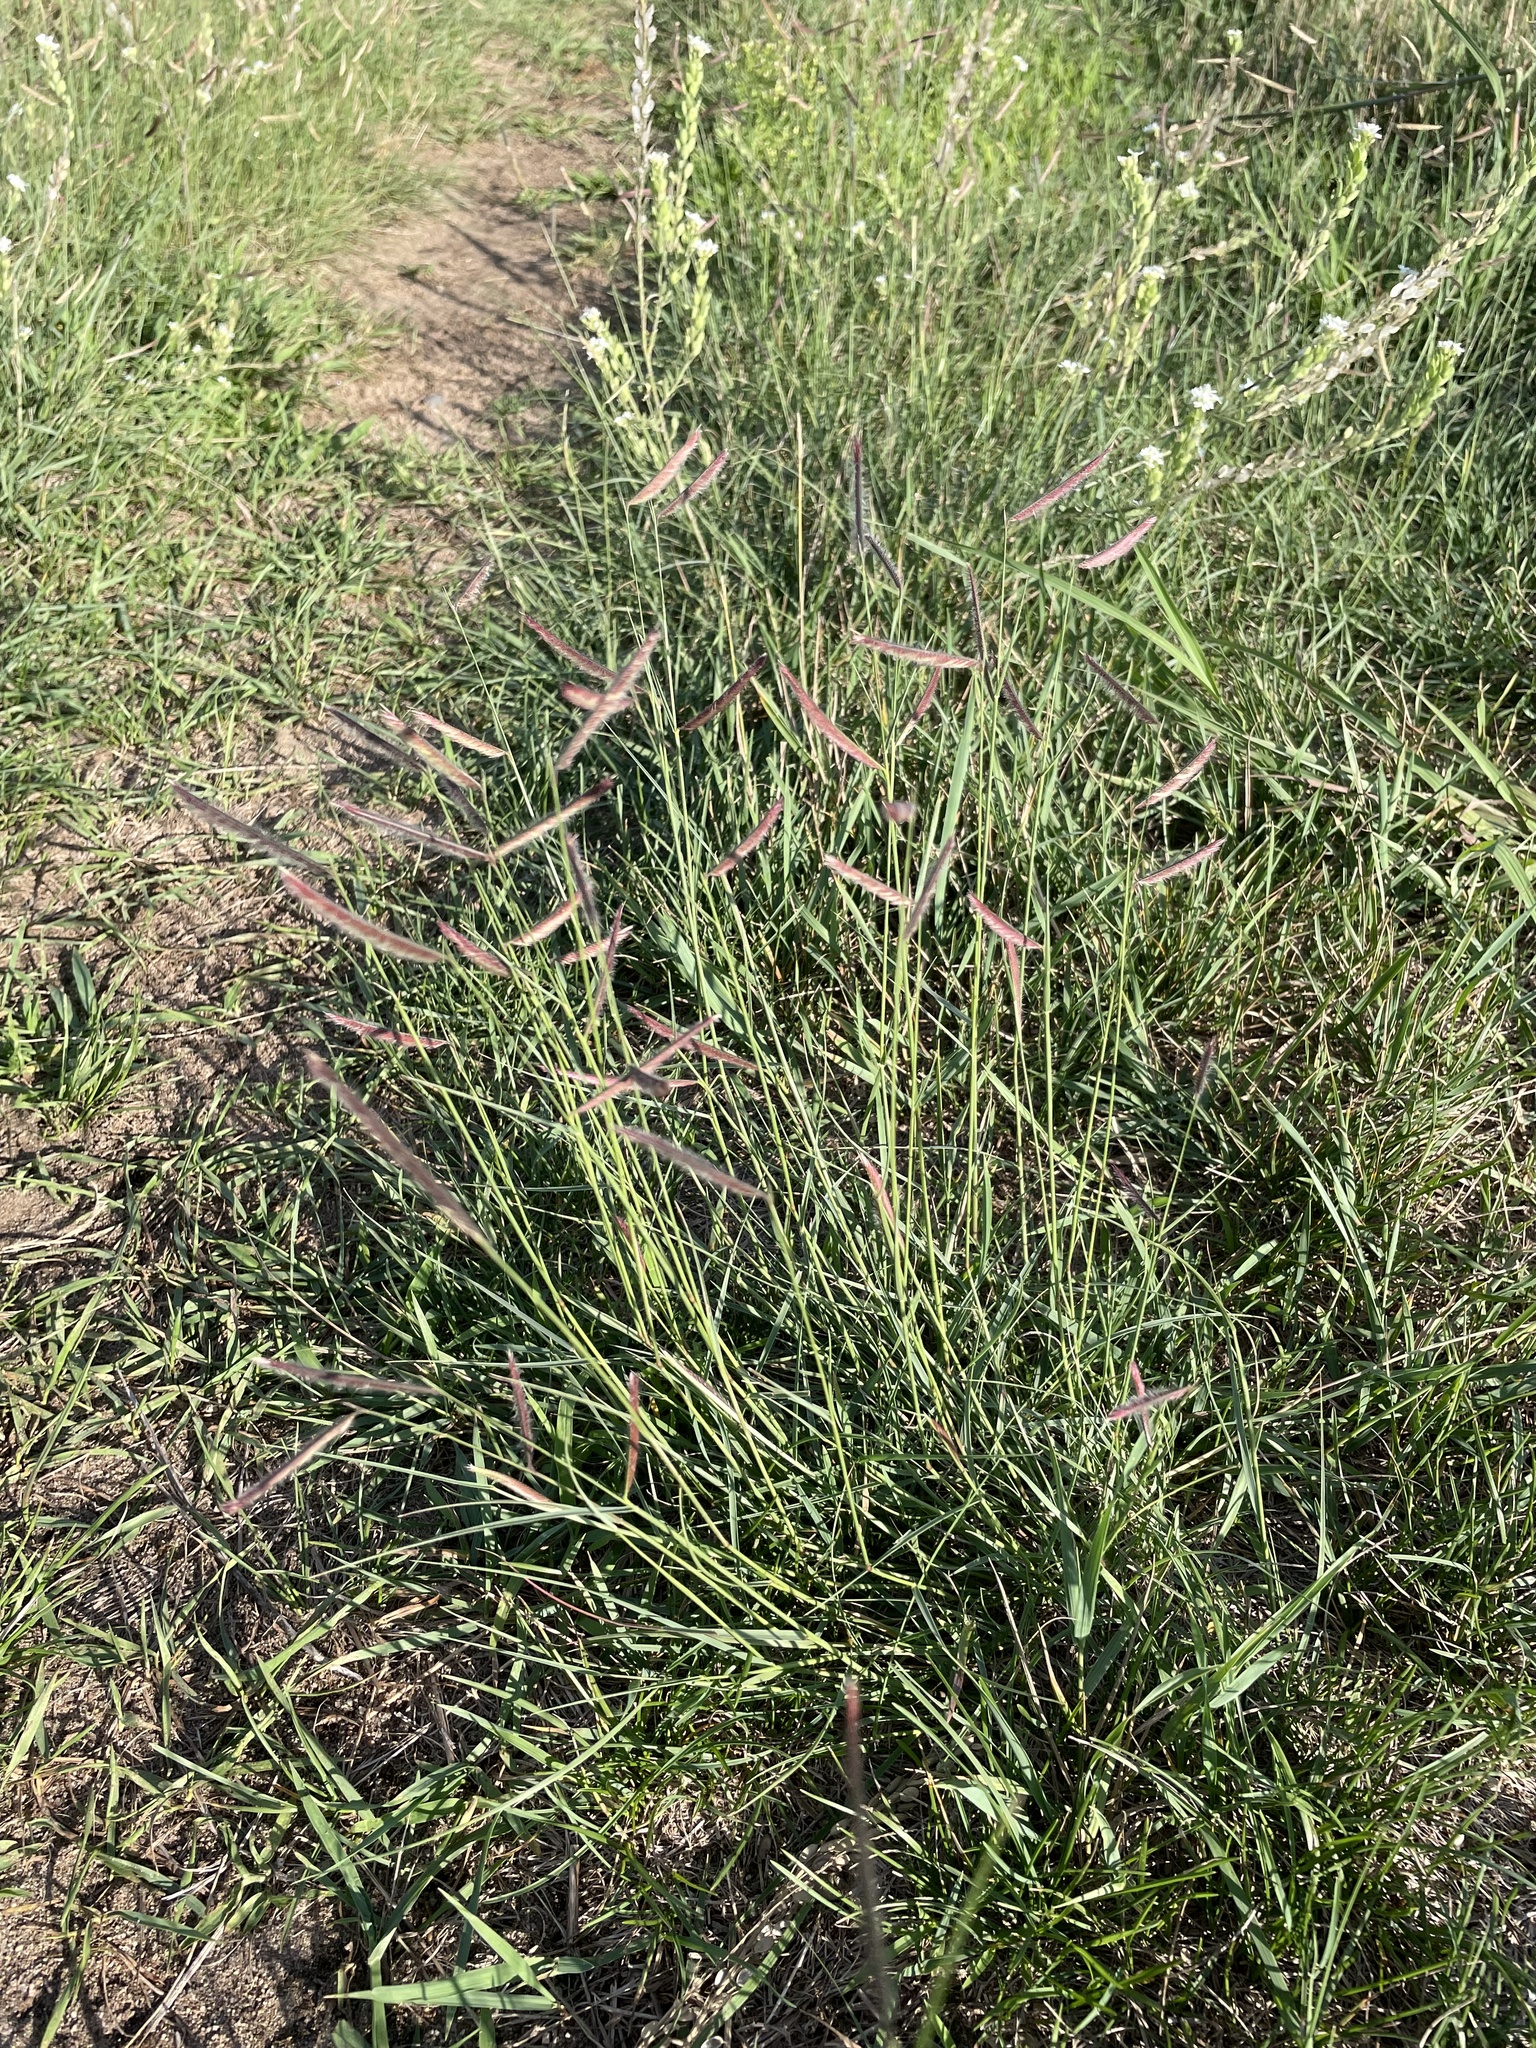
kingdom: Plantae
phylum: Tracheophyta
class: Liliopsida
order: Poales
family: Poaceae
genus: Bouteloua
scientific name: Bouteloua gracilis
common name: Blue grama
